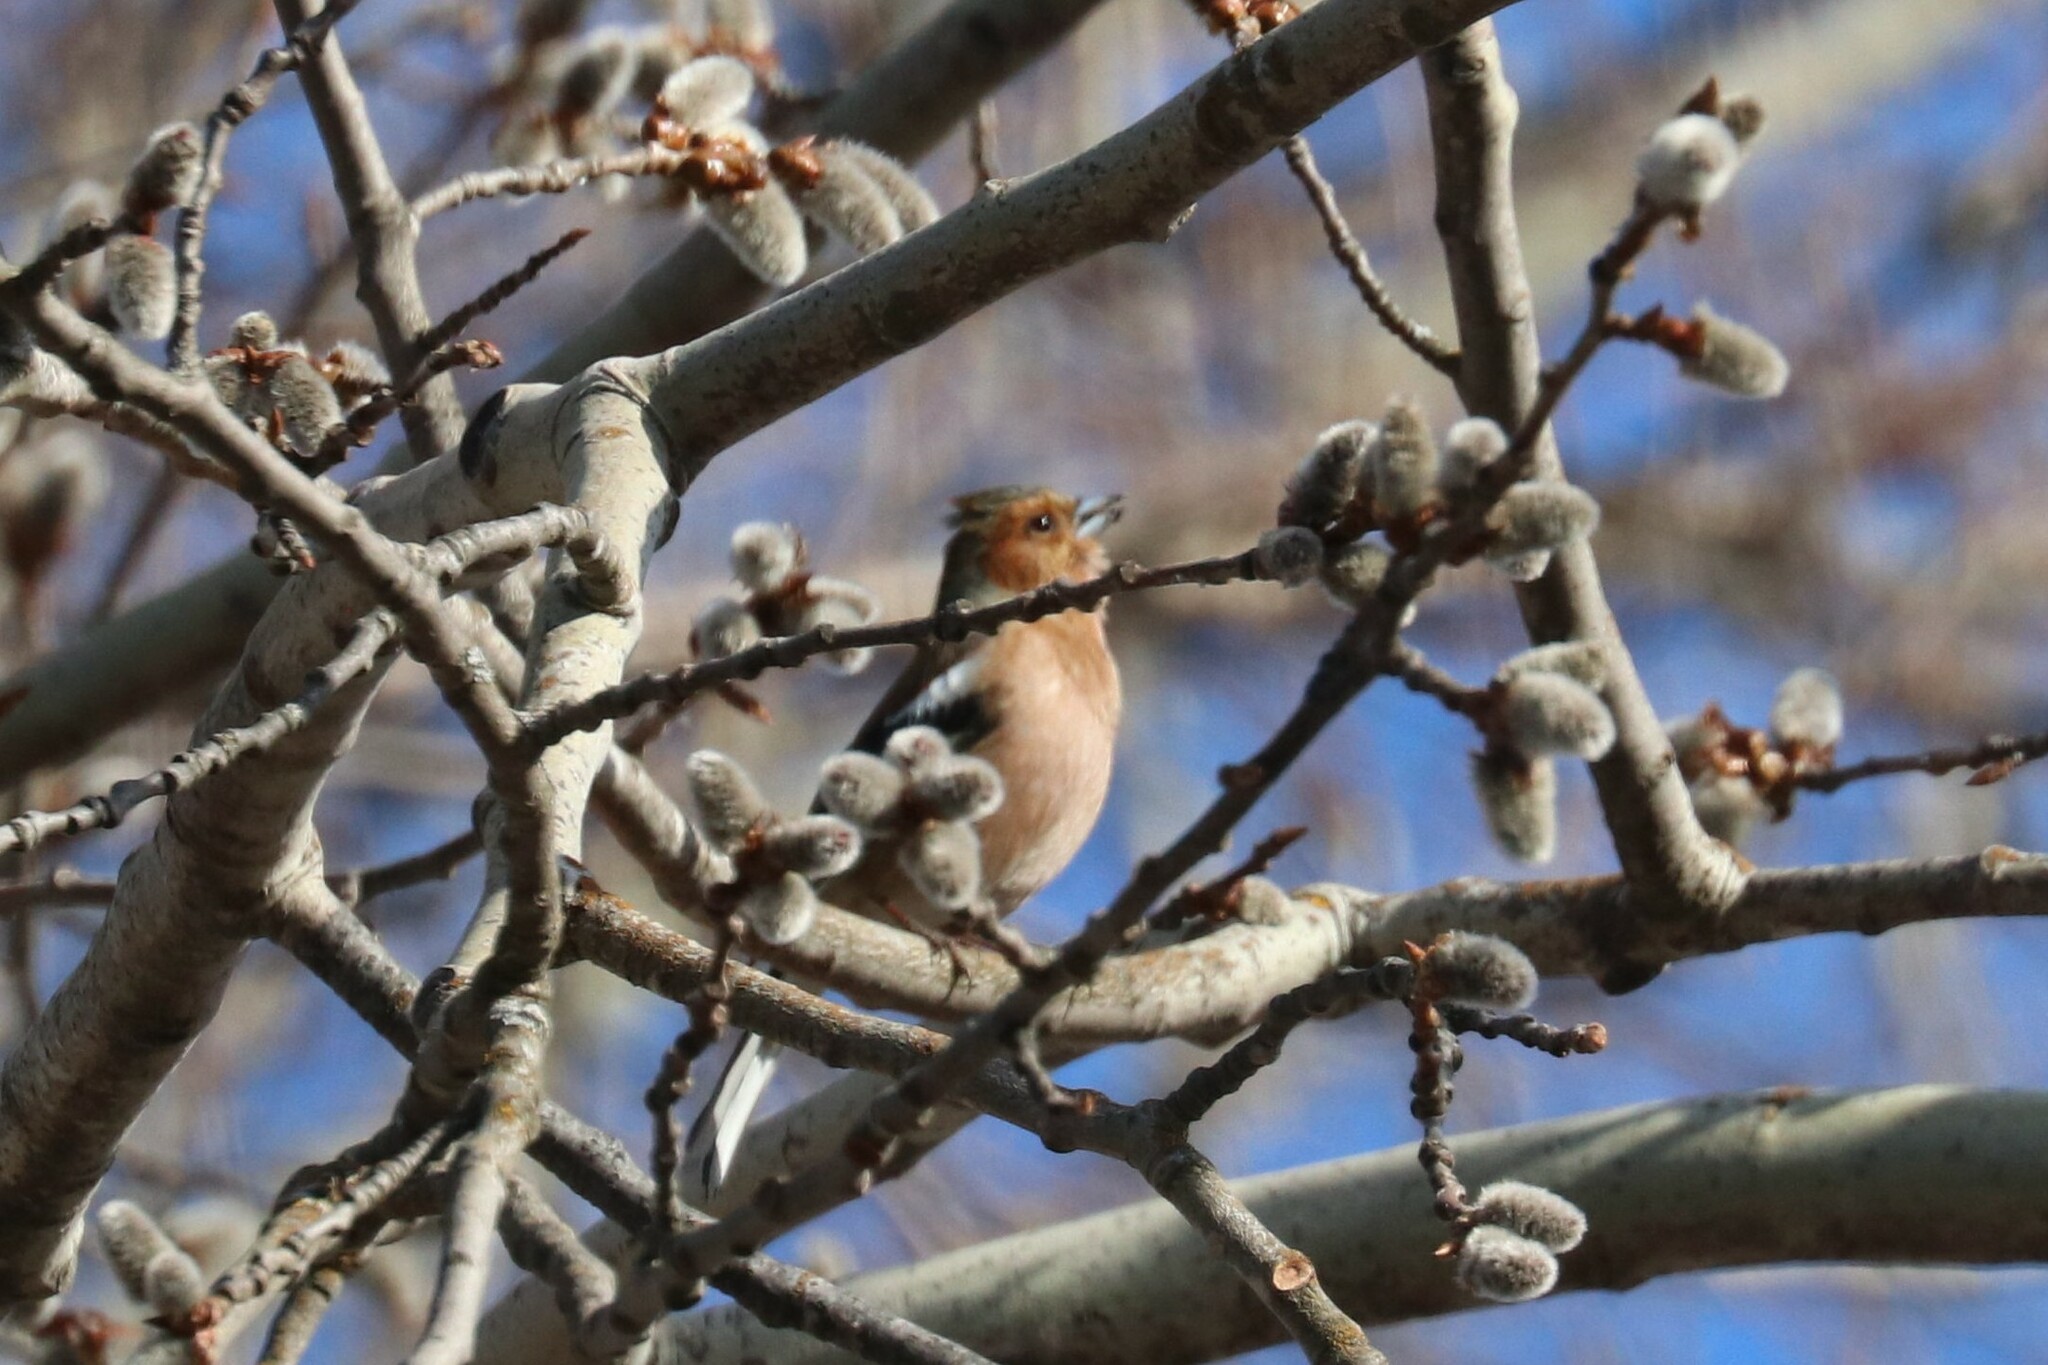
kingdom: Animalia
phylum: Chordata
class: Aves
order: Passeriformes
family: Fringillidae
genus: Fringilla
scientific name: Fringilla coelebs
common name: Common chaffinch
